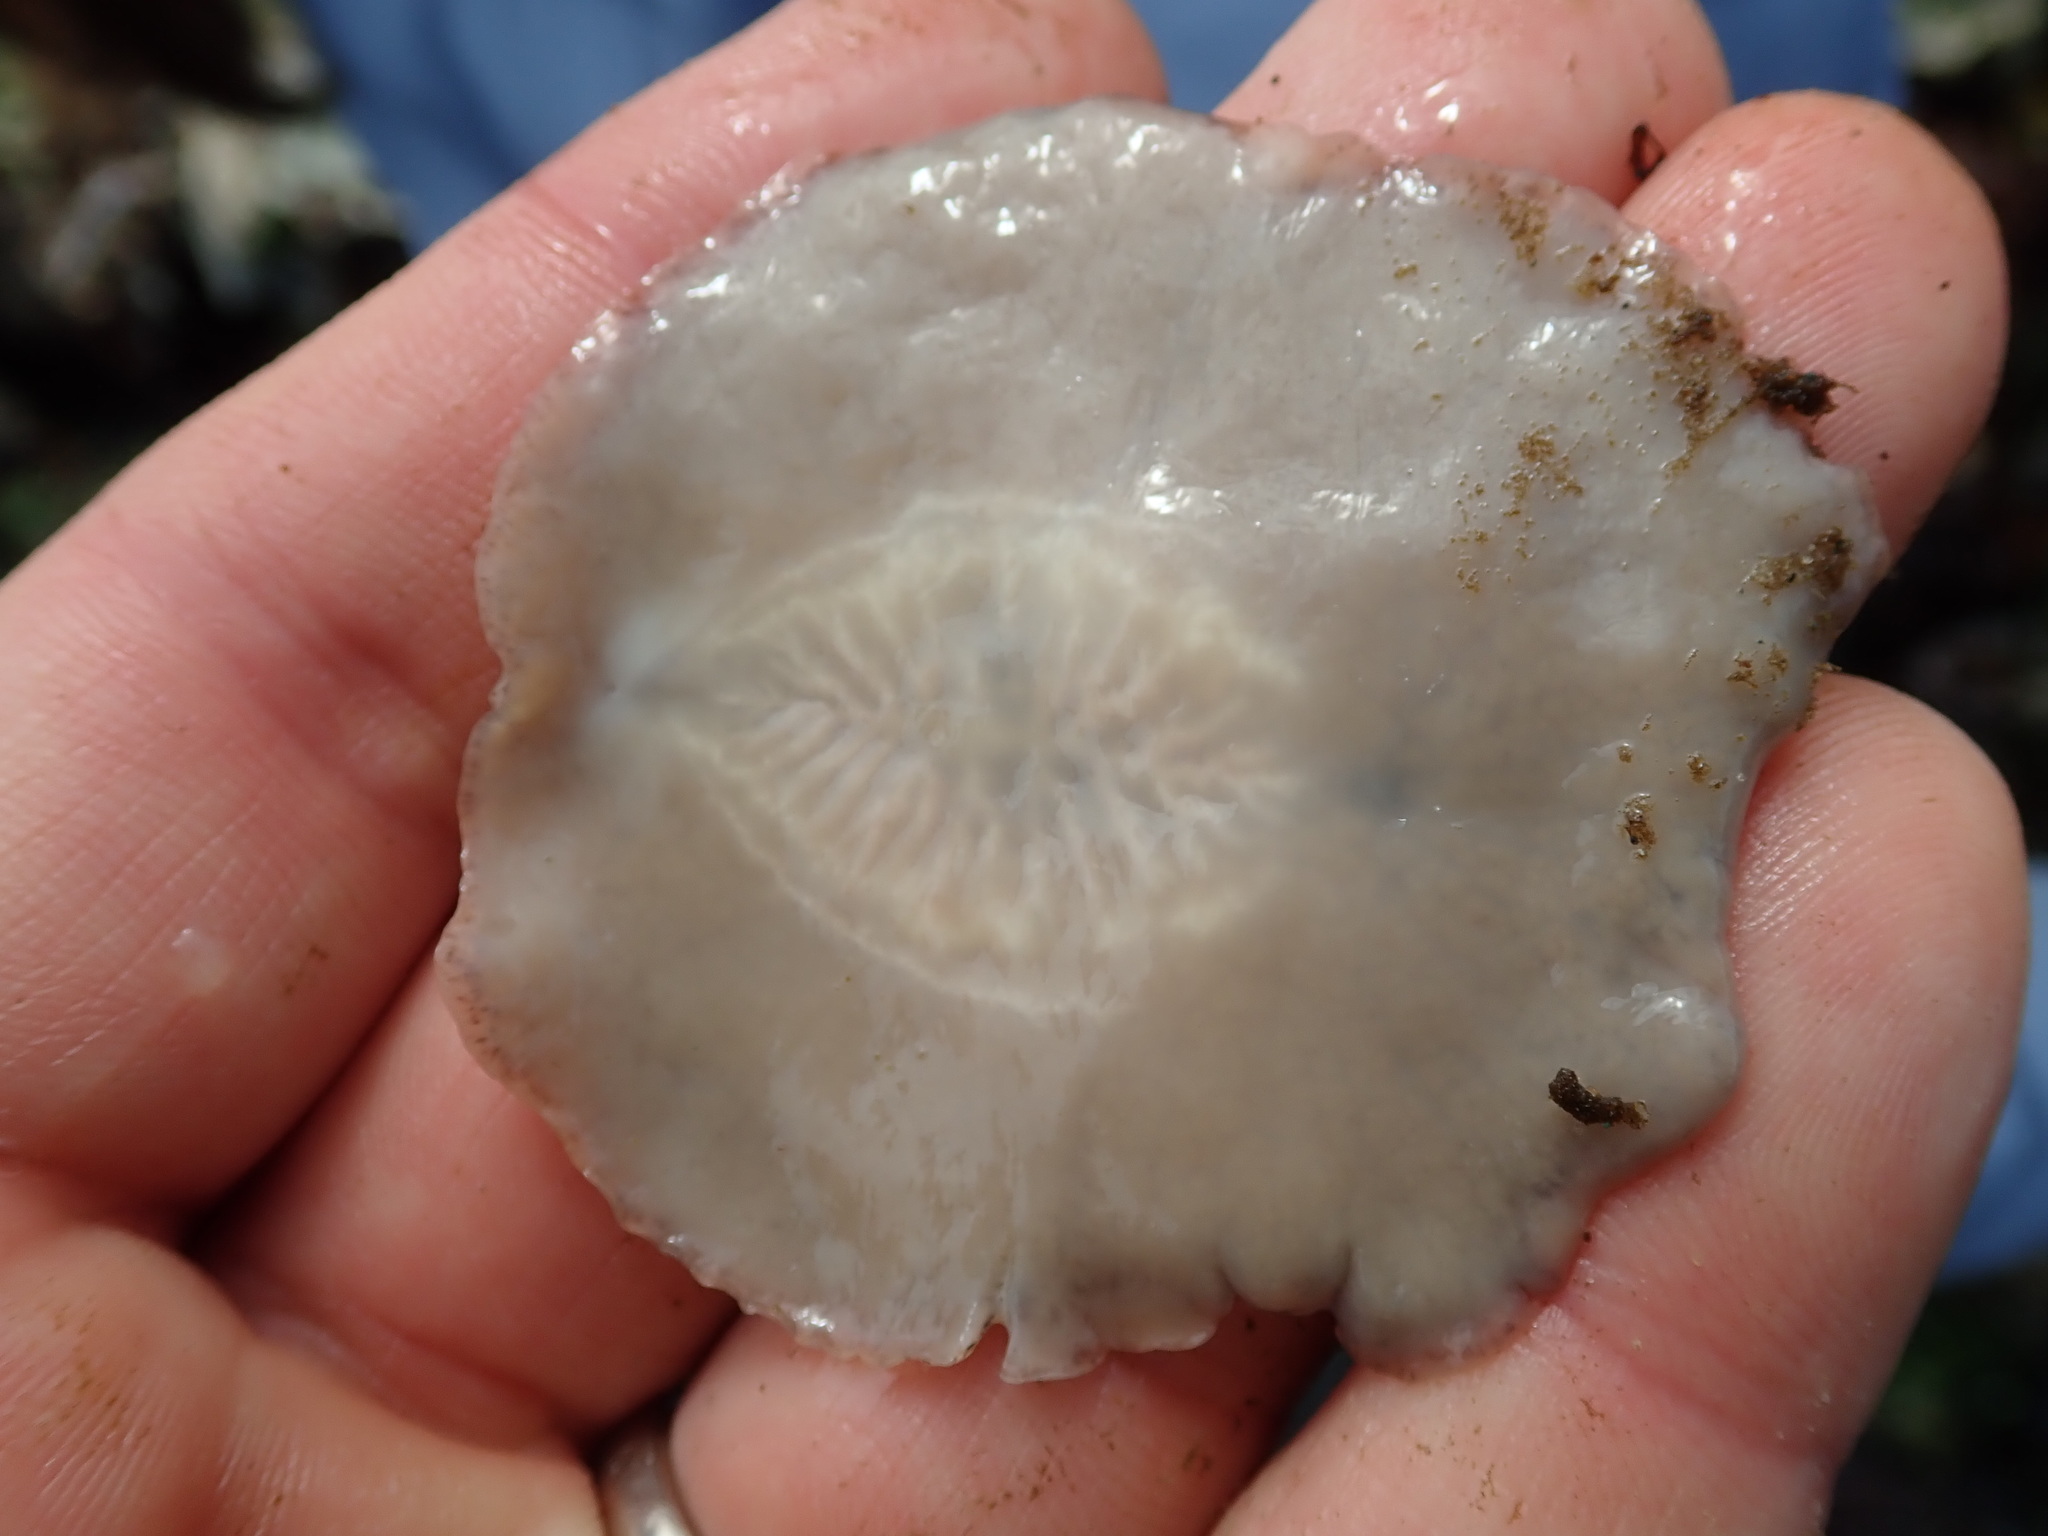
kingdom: Animalia
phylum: Platyhelminthes
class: Turbellaria
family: Callioplanidae
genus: Kaburakia
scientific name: Kaburakia excelsa
